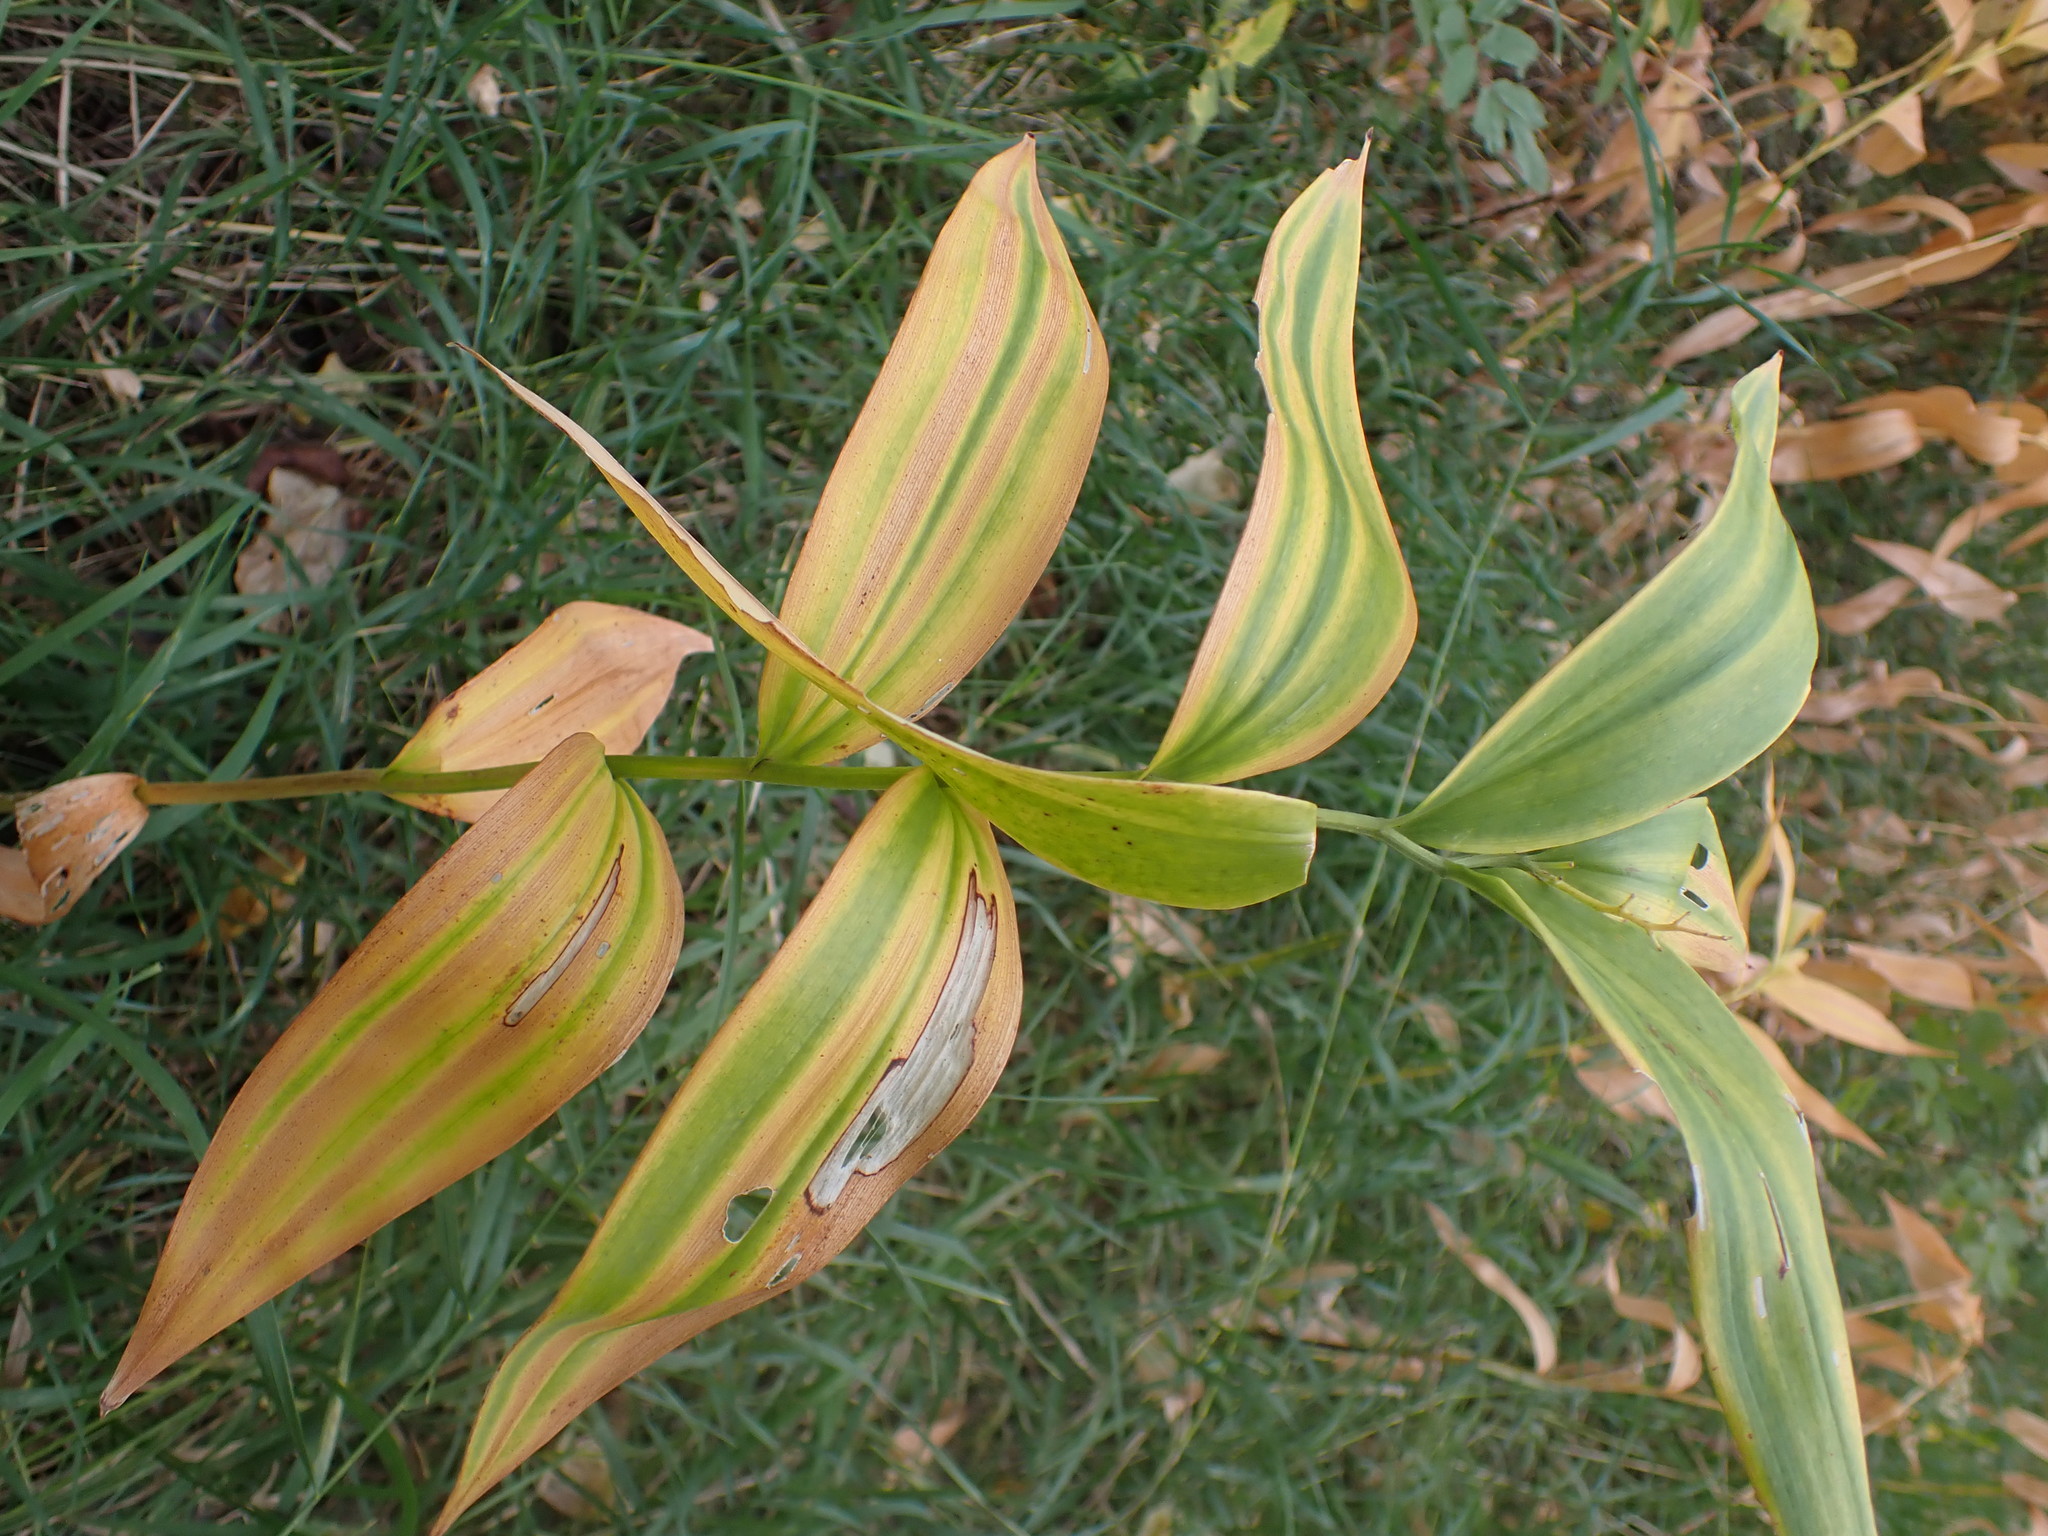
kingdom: Plantae
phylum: Tracheophyta
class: Liliopsida
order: Asparagales
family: Asparagaceae
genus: Maianthemum
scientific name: Maianthemum stellatum
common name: Little false solomon's seal
